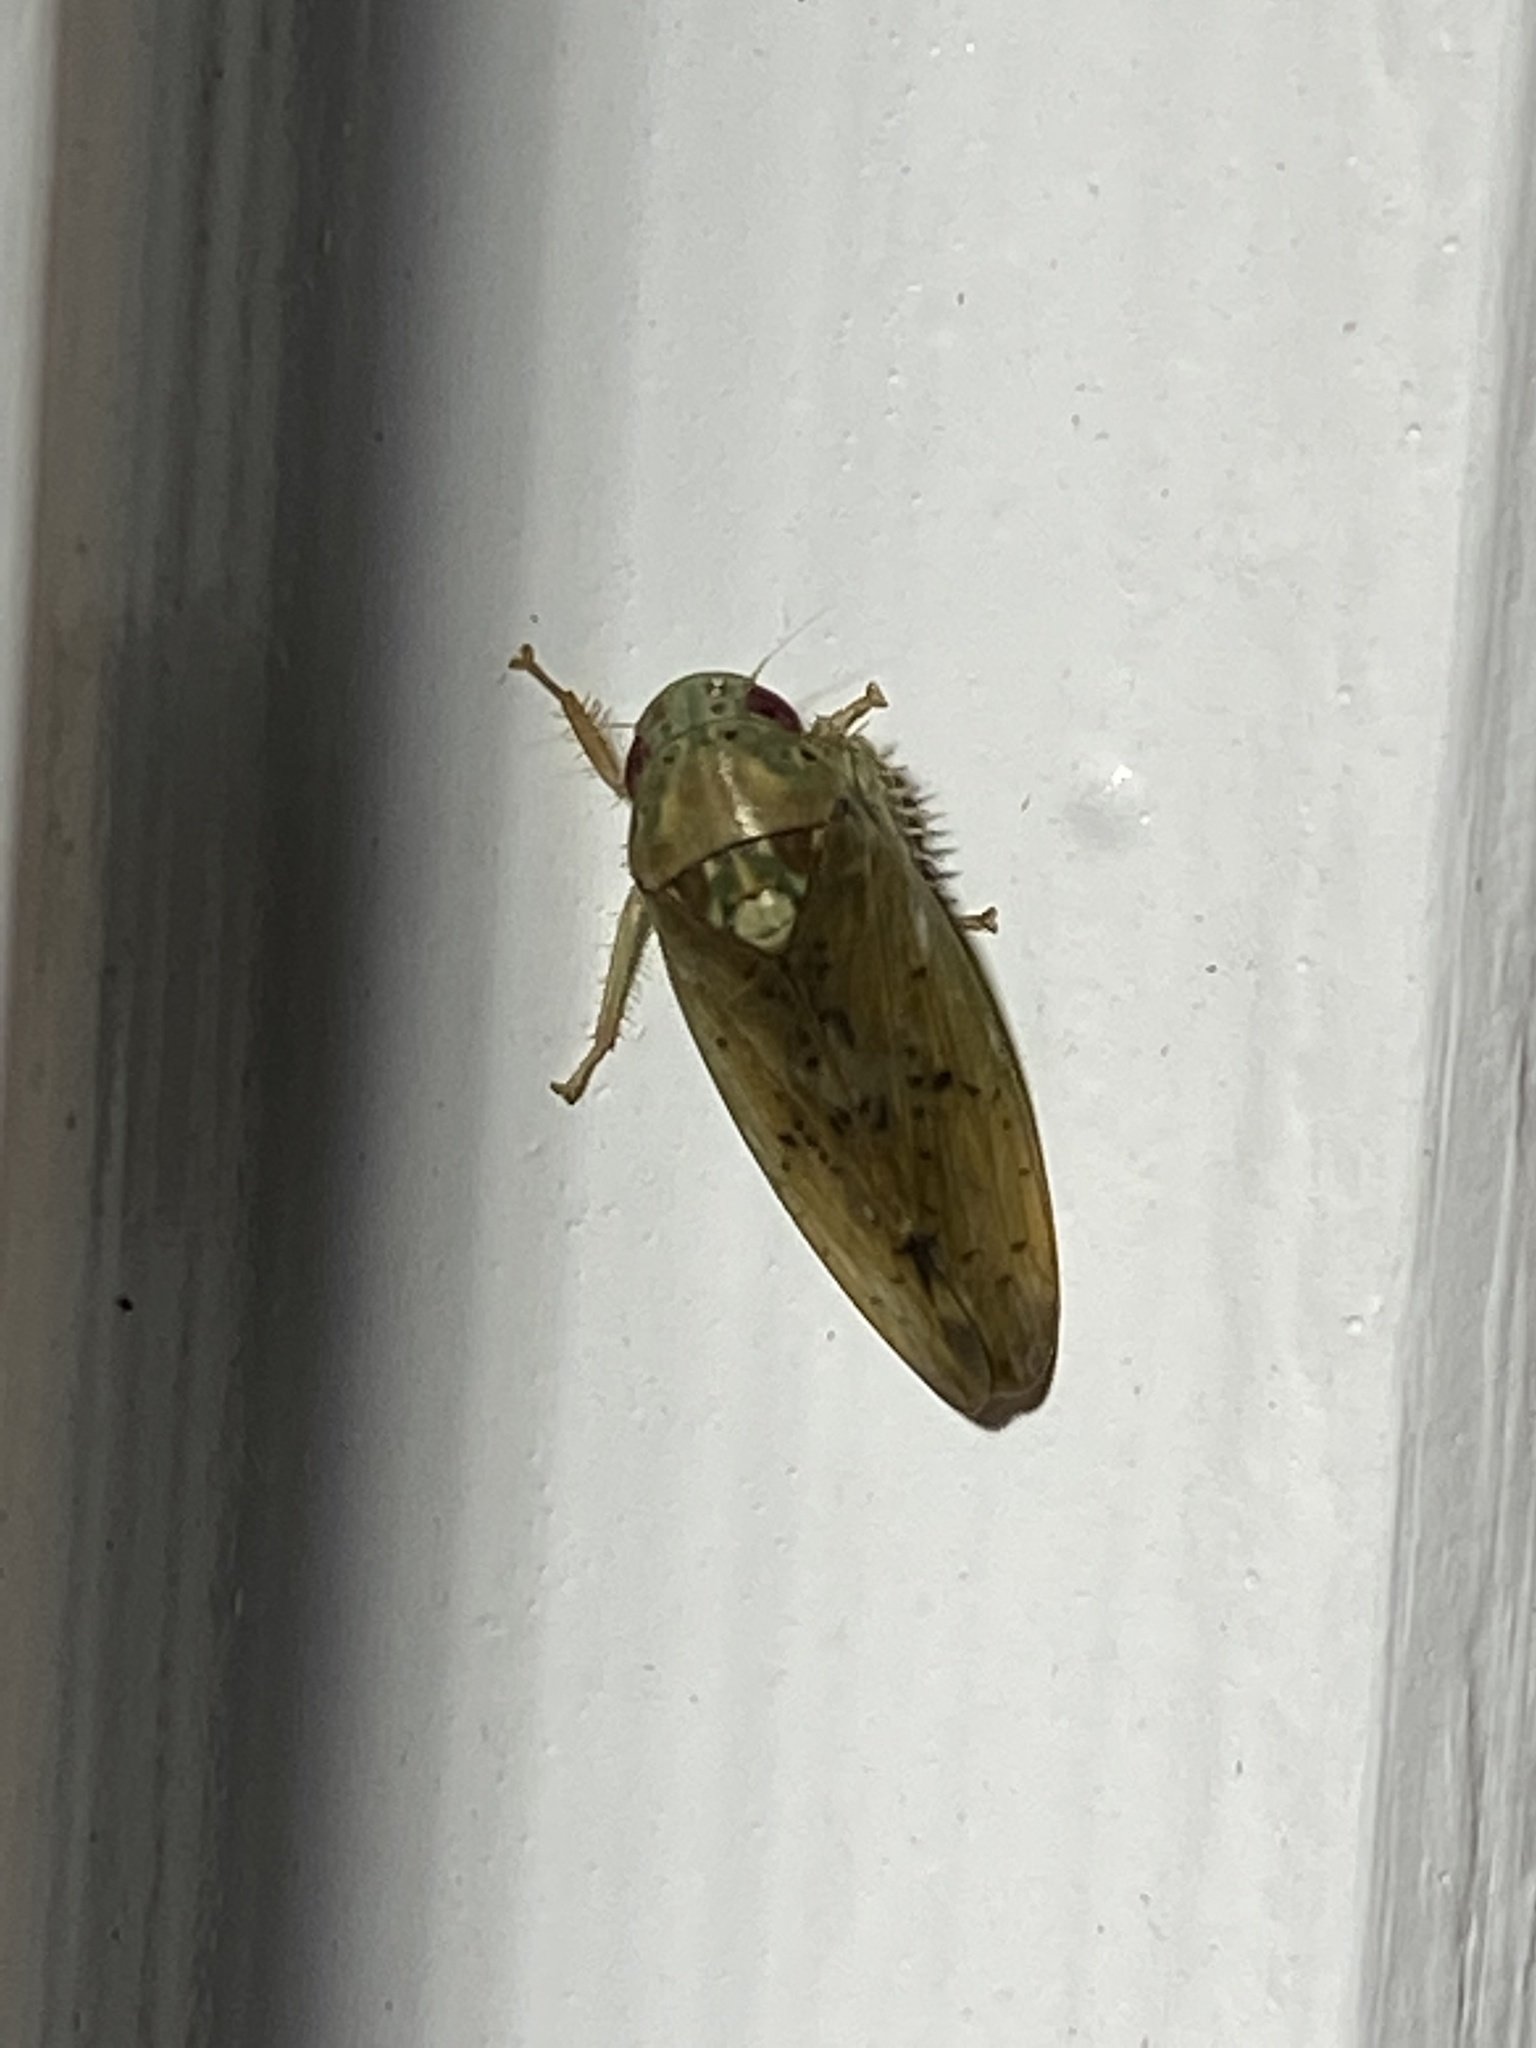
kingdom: Animalia
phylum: Arthropoda
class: Insecta
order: Hemiptera
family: Cicadellidae
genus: Ponana
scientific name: Ponana quadralaba
